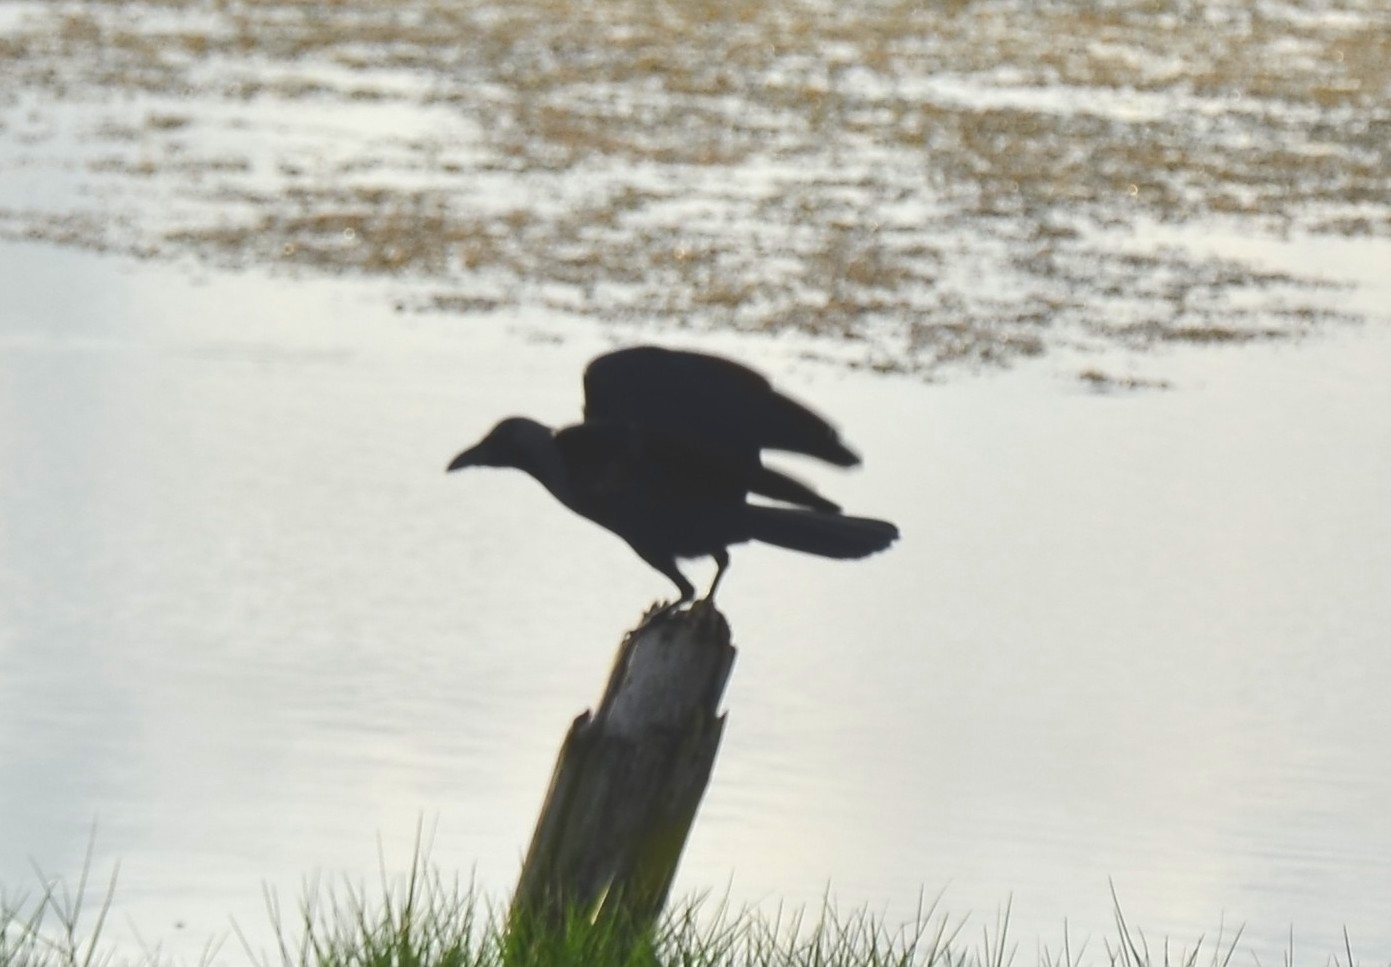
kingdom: Animalia
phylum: Chordata
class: Aves
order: Passeriformes
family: Corvidae
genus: Corvus
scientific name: Corvus splendens
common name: House crow
